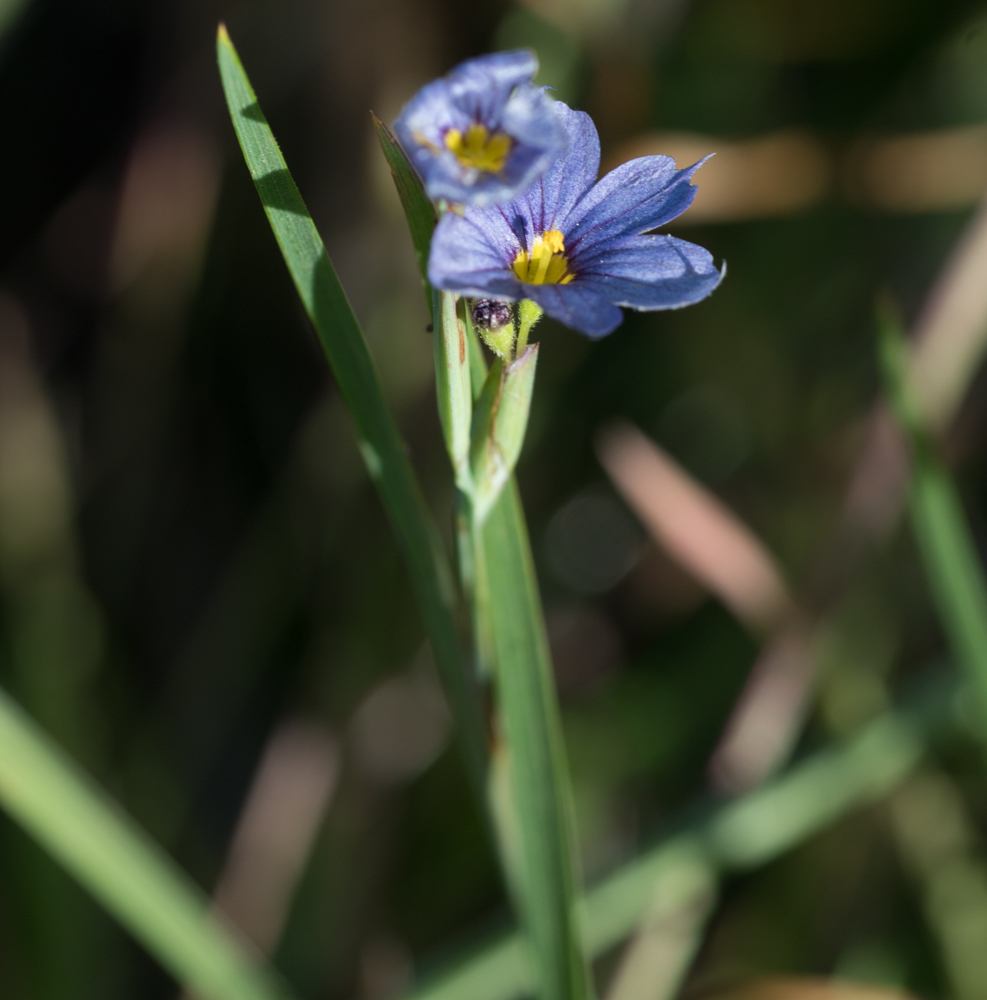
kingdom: Plantae
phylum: Tracheophyta
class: Liliopsida
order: Asparagales
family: Iridaceae
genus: Sisyrinchium
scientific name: Sisyrinchium bellum
